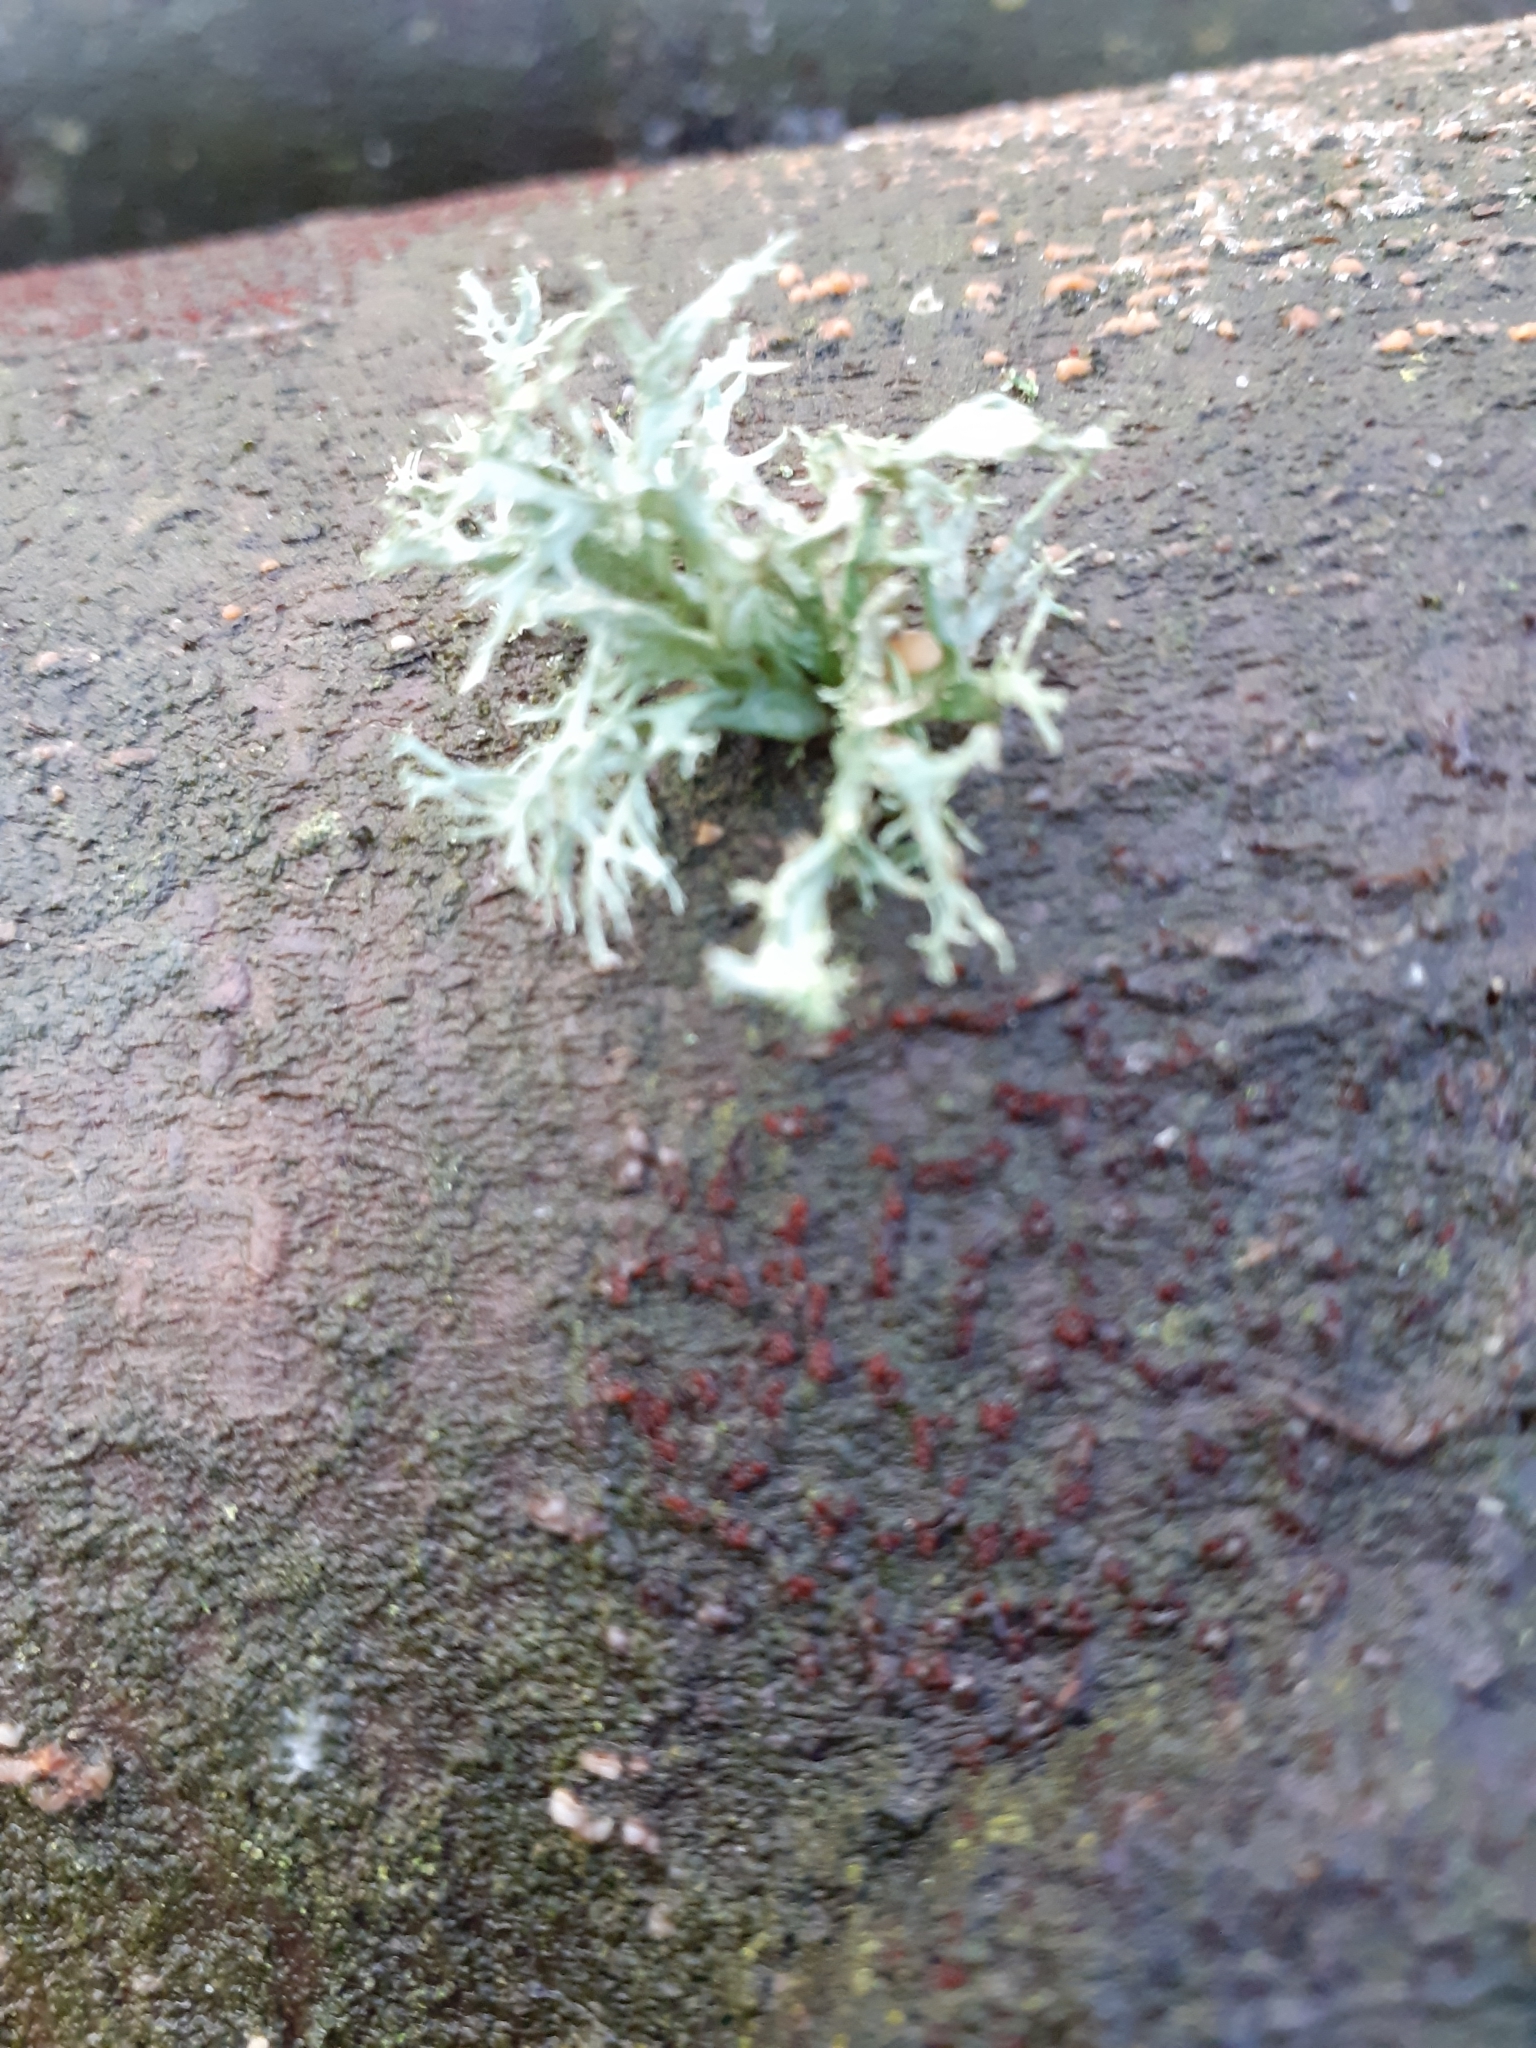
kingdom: Fungi
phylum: Ascomycota
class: Lecanoromycetes
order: Lecanorales
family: Ramalinaceae
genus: Ramalina
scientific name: Ramalina fastigiata
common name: Dotted ribbon lichen
